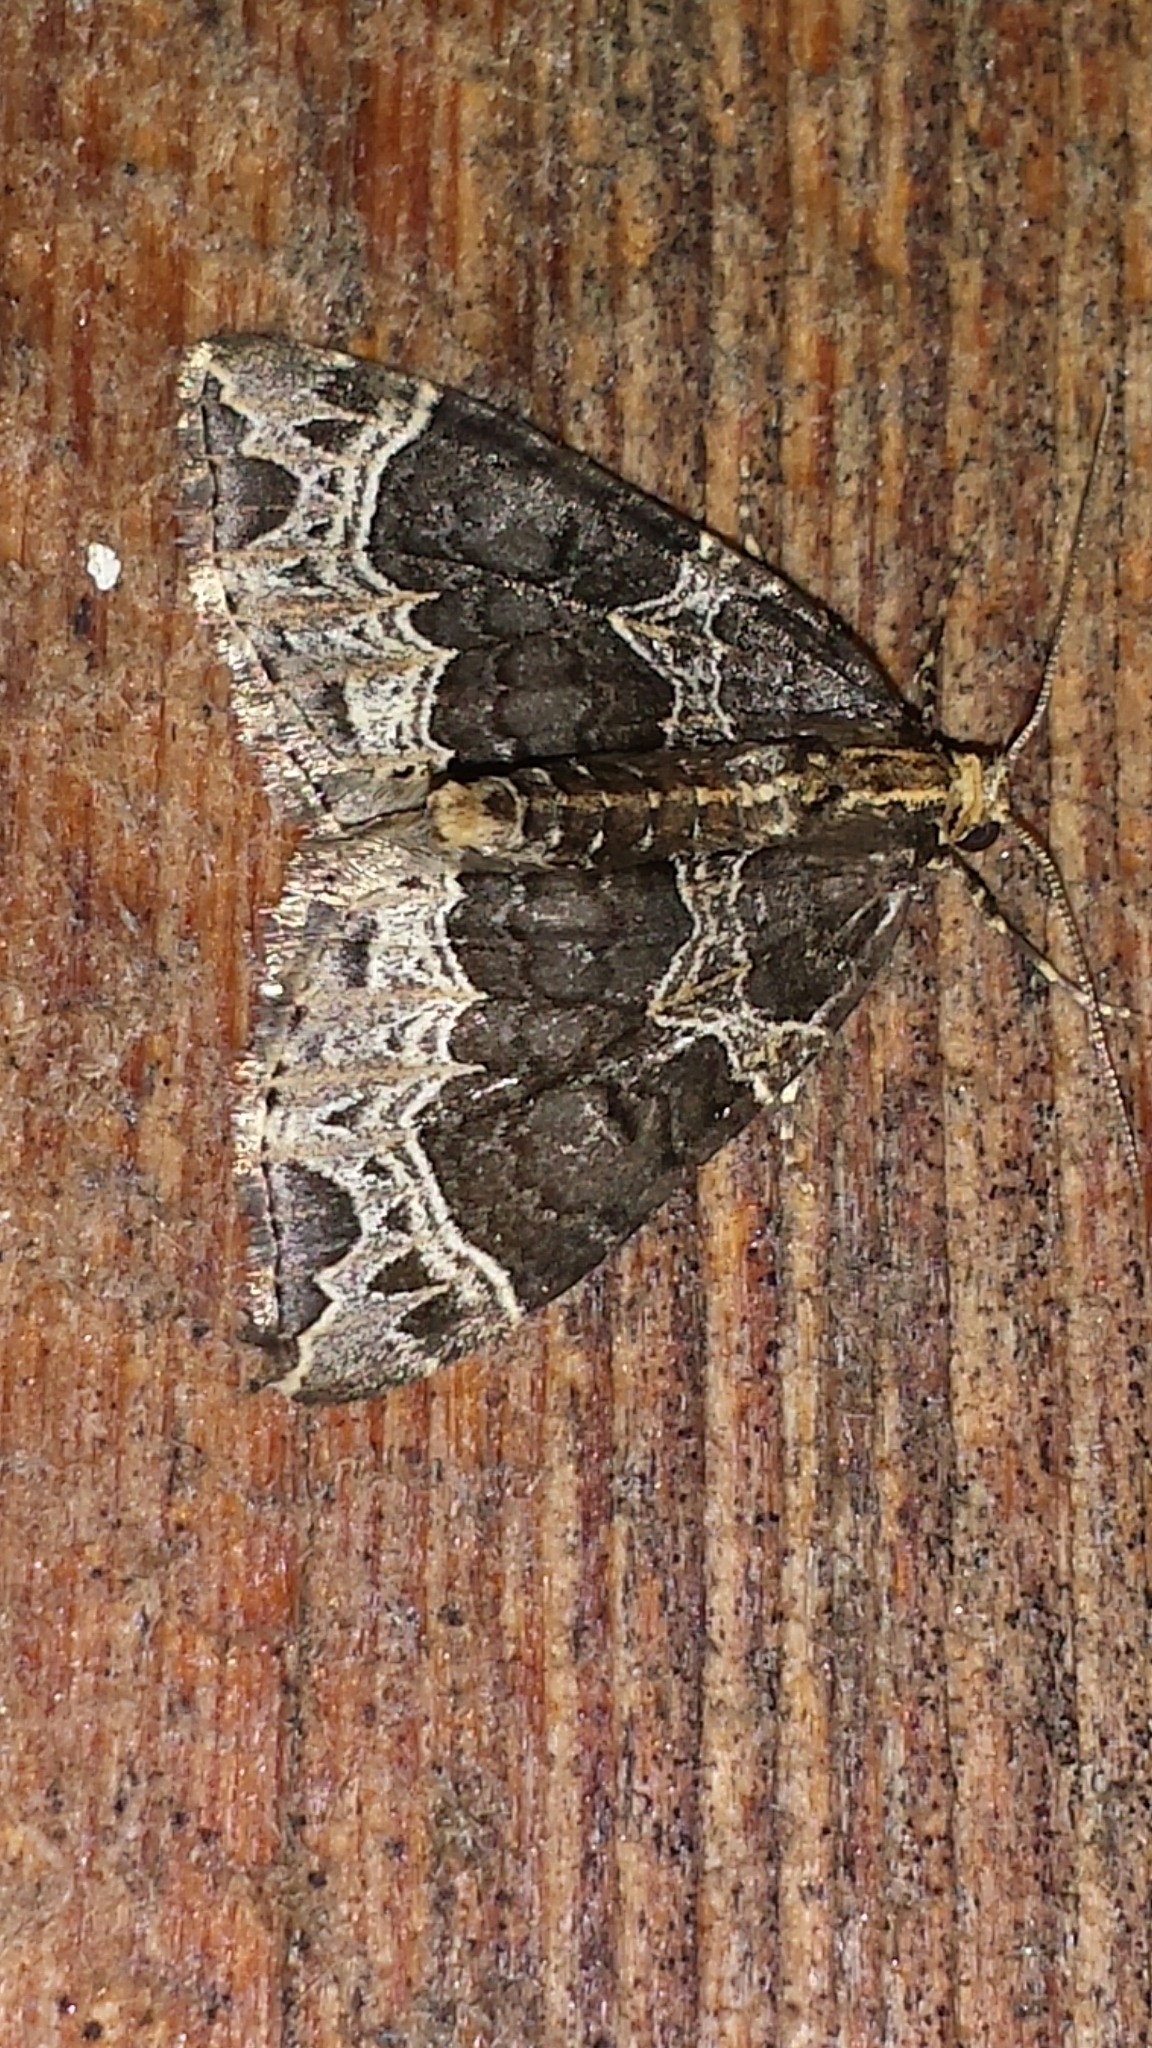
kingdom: Animalia
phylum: Arthropoda
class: Insecta
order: Lepidoptera
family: Geometridae
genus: Ecliptopera
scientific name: Ecliptopera silaceata
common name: Small phoenix
